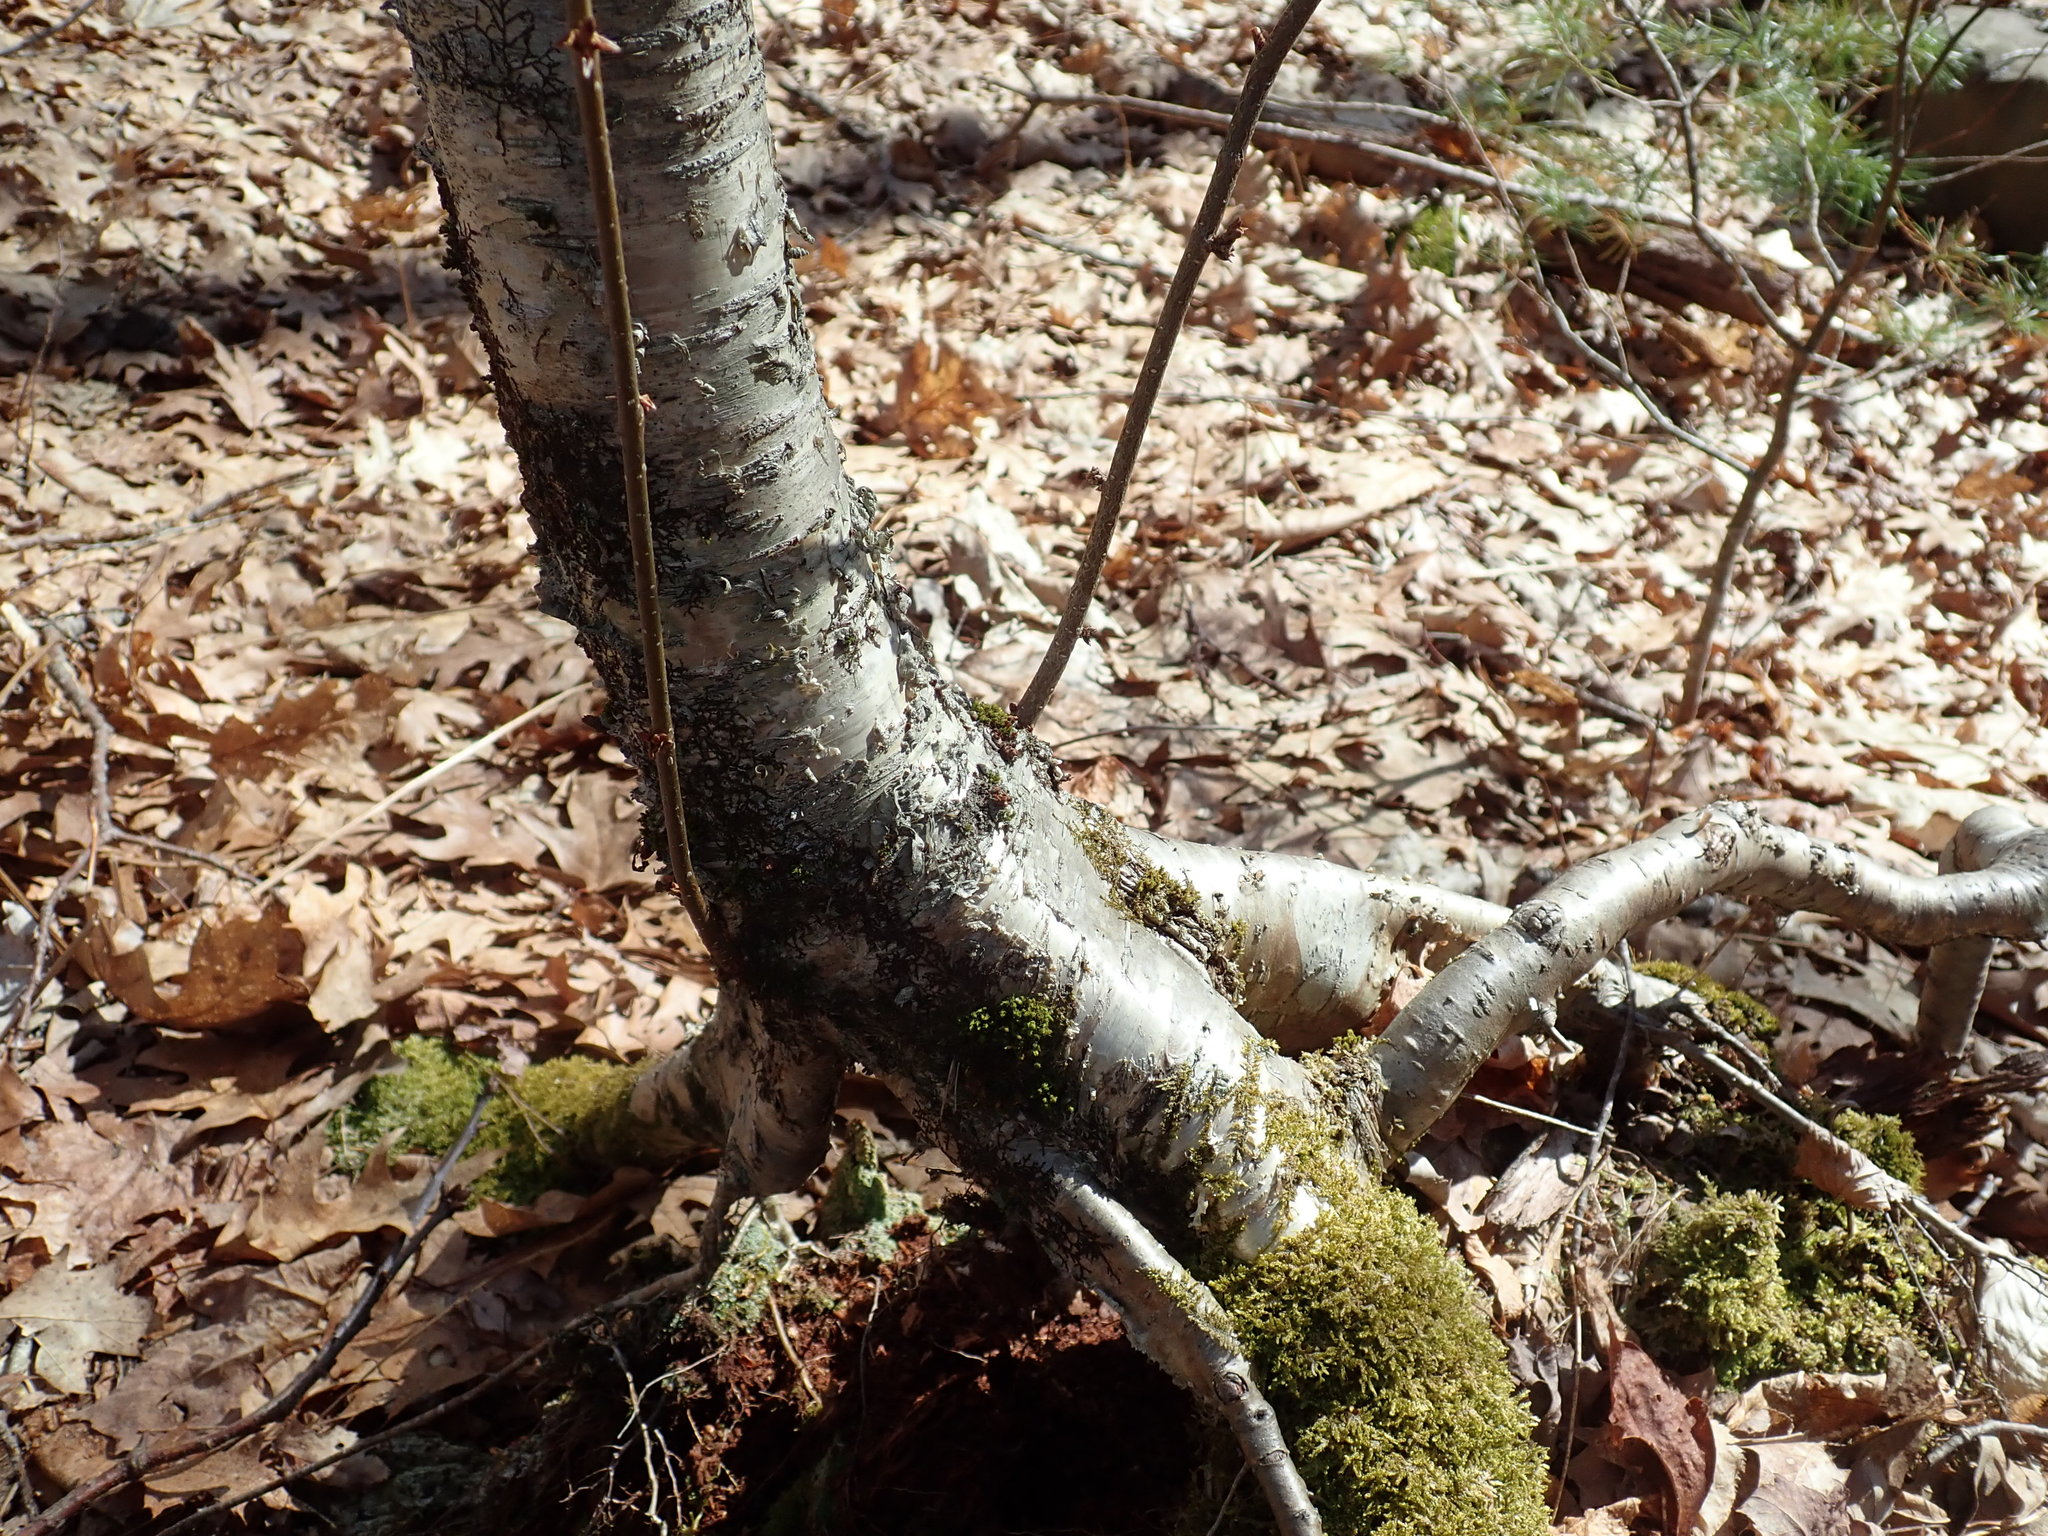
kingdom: Plantae
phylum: Tracheophyta
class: Magnoliopsida
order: Fagales
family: Betulaceae
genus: Betula
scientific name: Betula alleghaniensis
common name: Yellow birch
